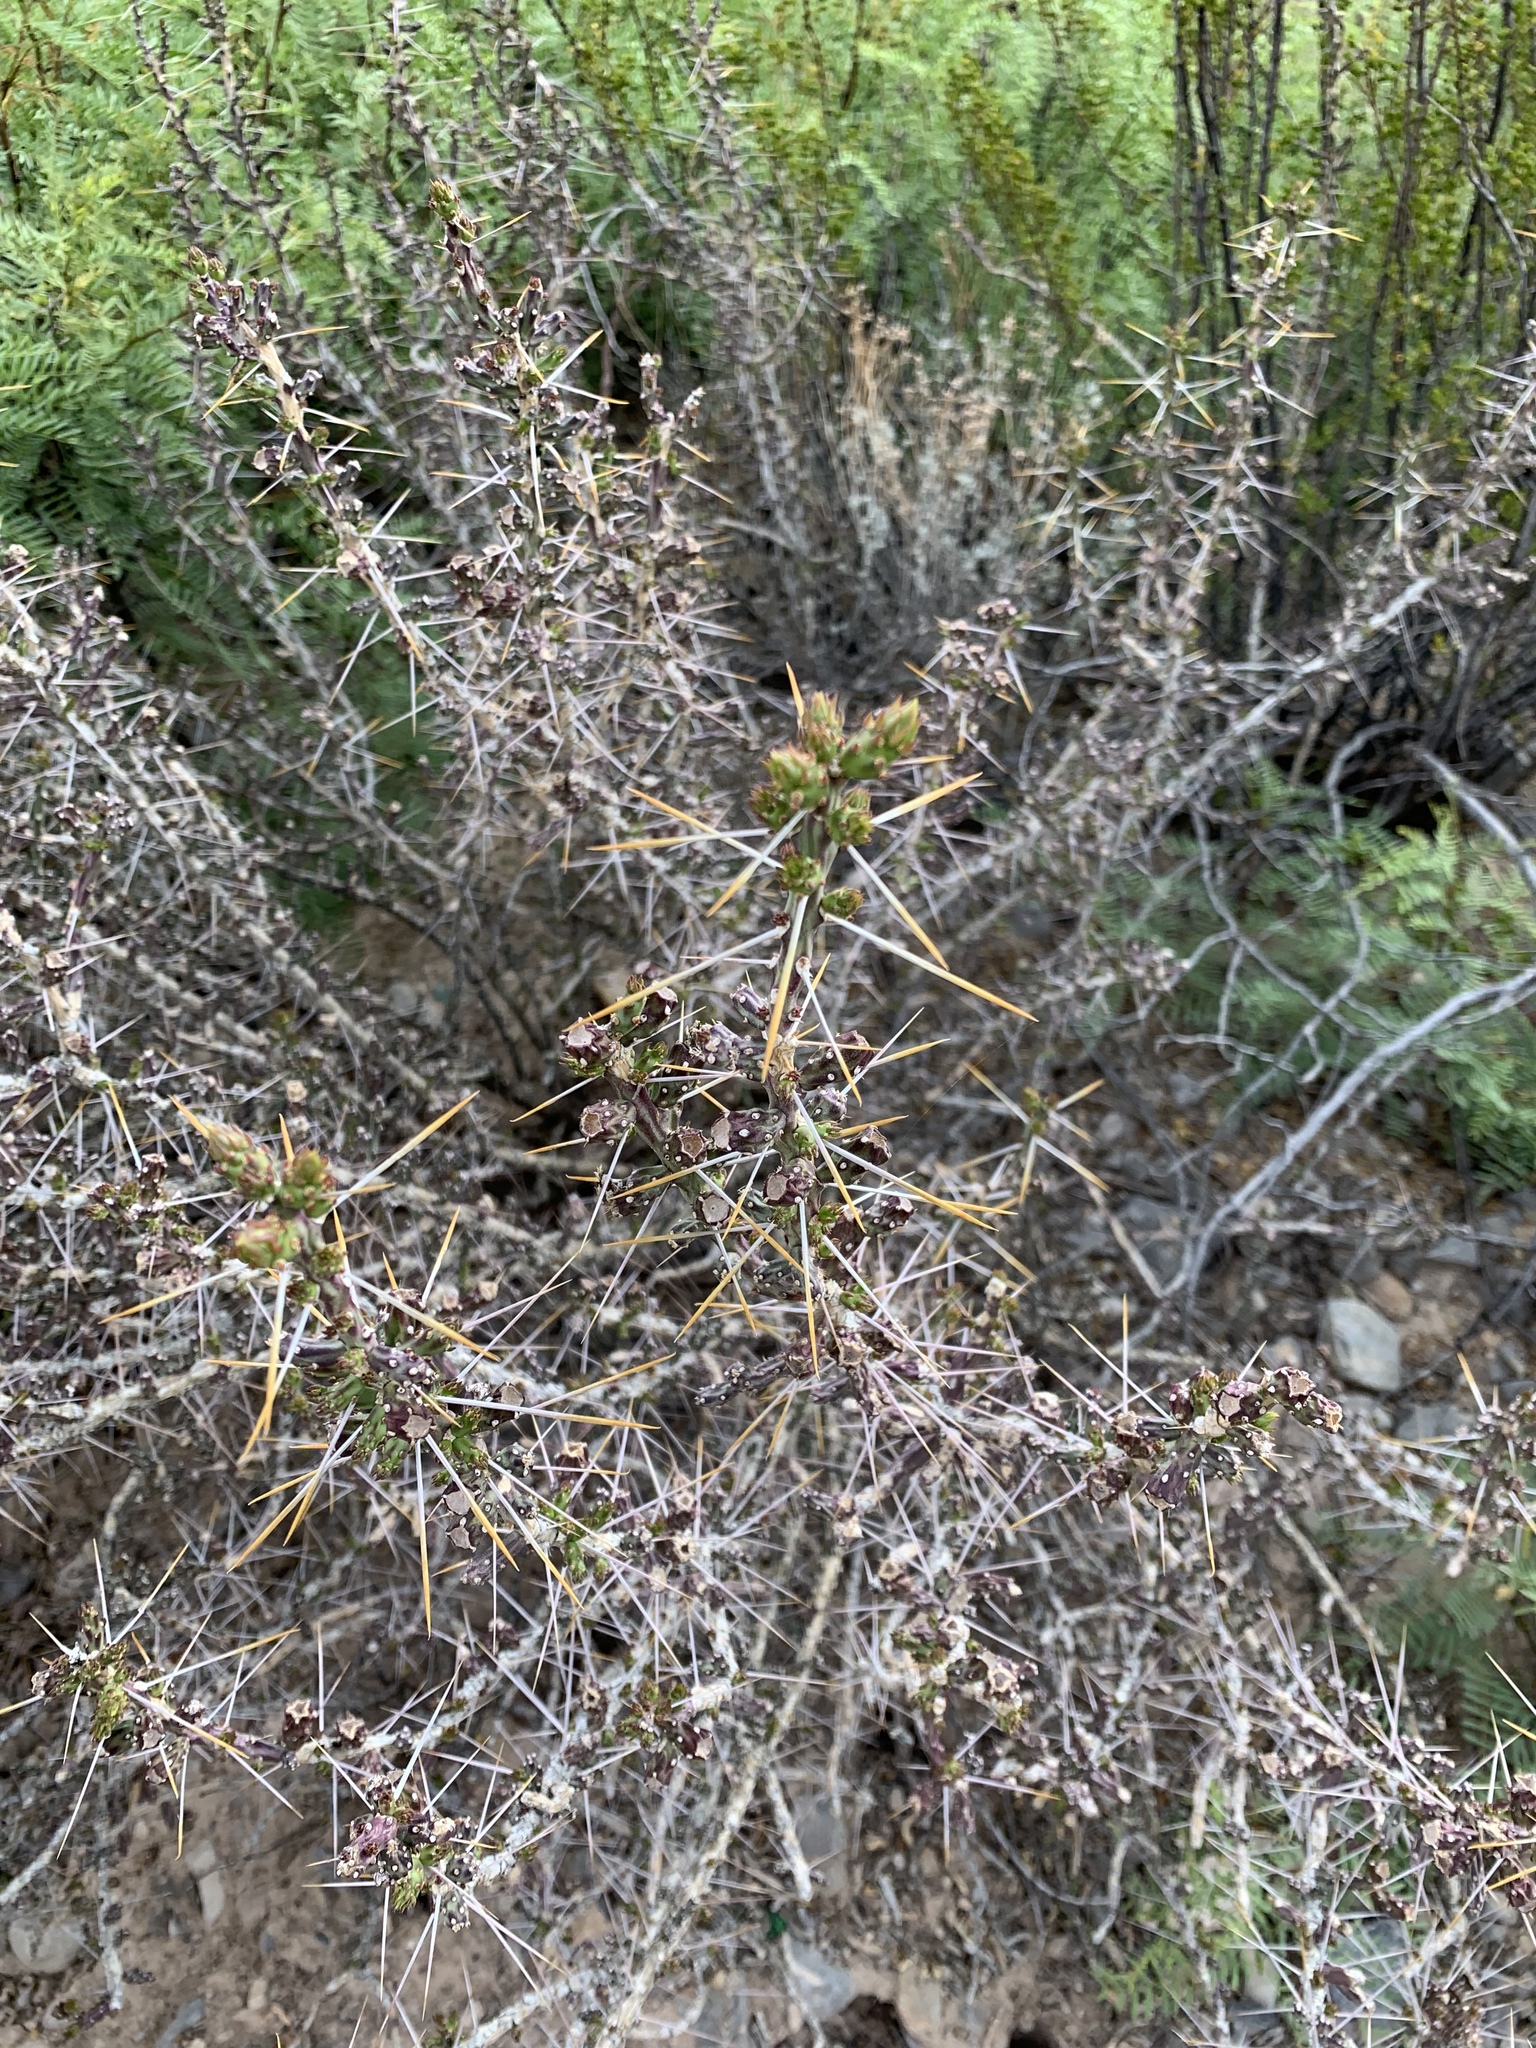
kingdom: Plantae
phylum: Tracheophyta
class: Magnoliopsida
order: Caryophyllales
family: Cactaceae
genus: Cylindropuntia
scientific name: Cylindropuntia leptocaulis
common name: Christmas cactus
